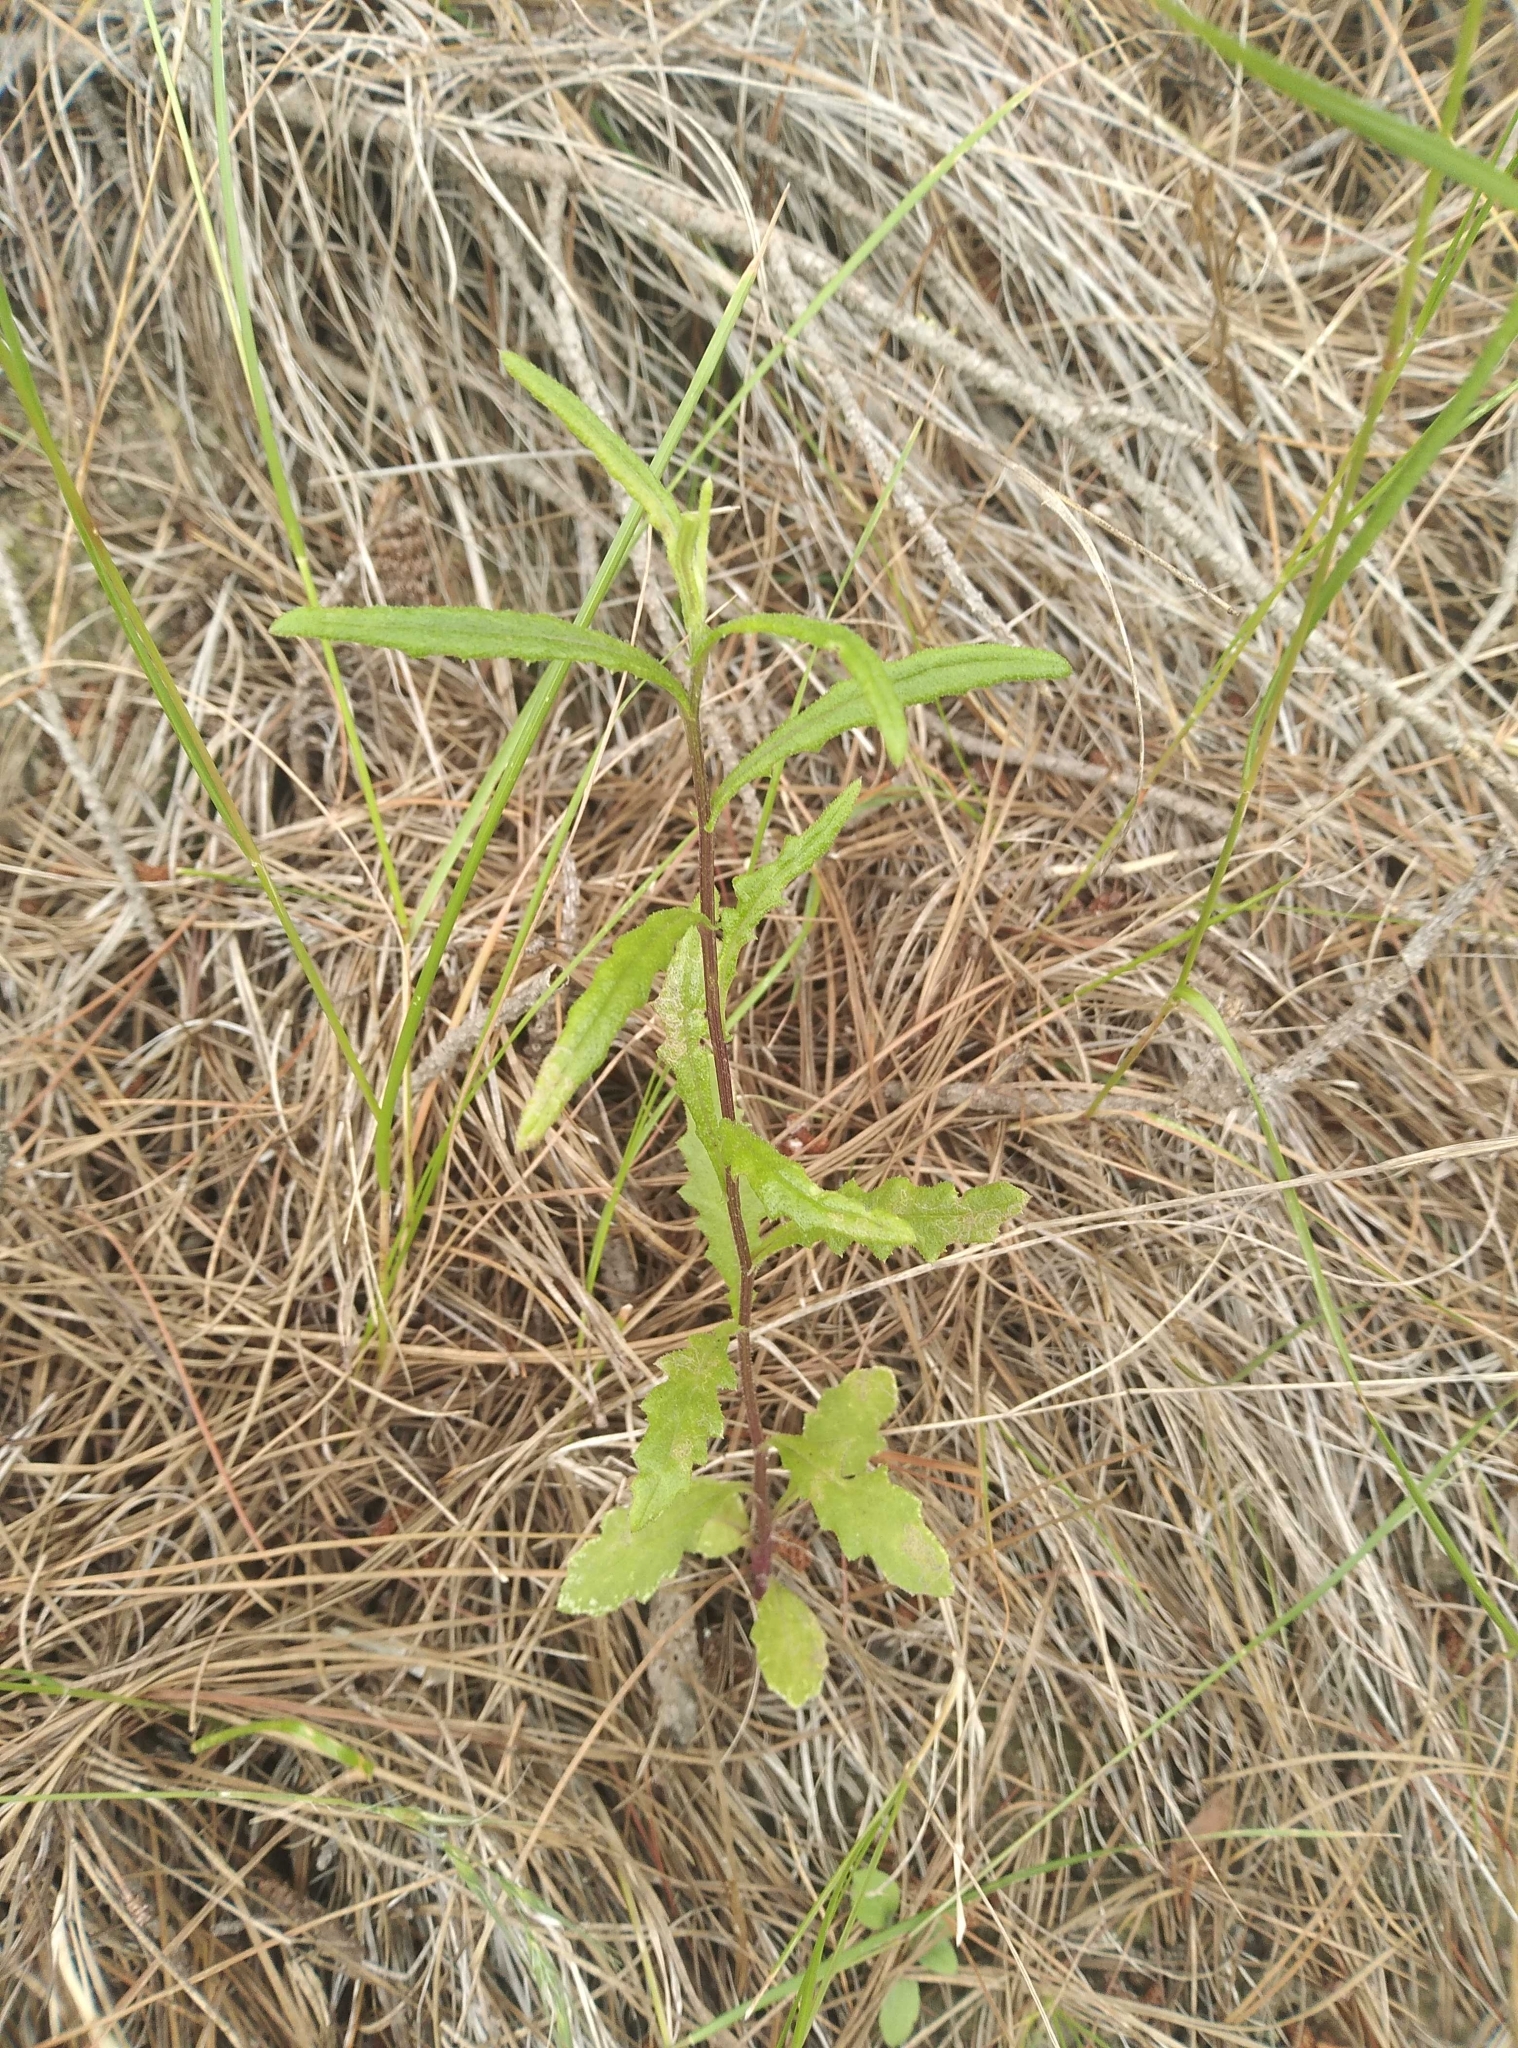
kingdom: Plantae
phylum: Tracheophyta
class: Magnoliopsida
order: Asterales
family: Asteraceae
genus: Senecio
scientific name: Senecio hispidulus
